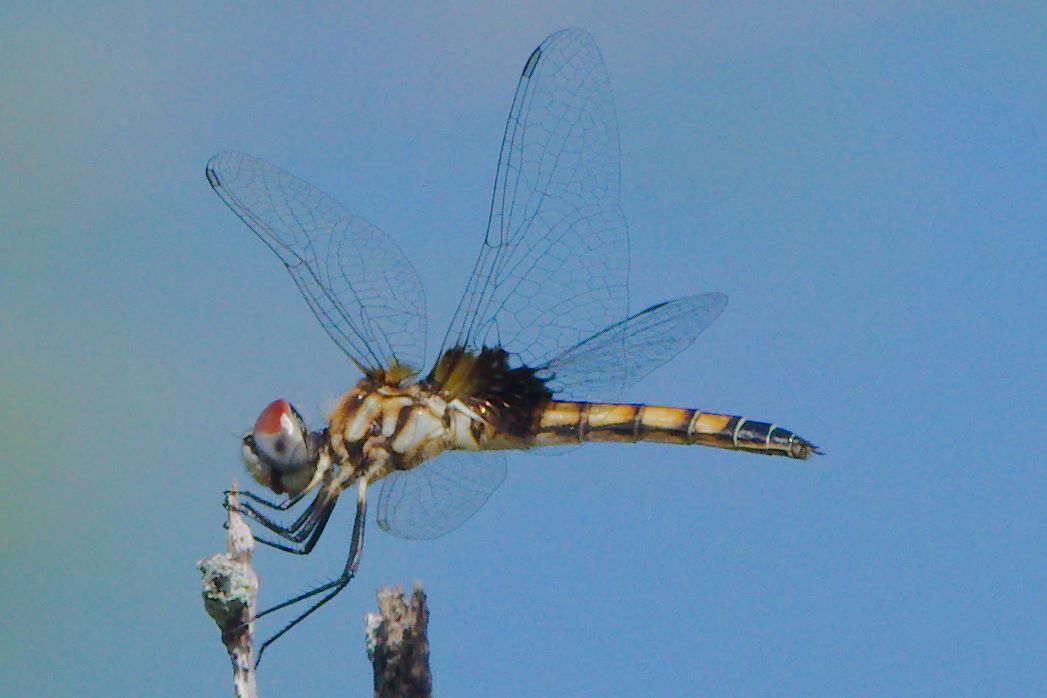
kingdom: Animalia
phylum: Arthropoda
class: Insecta
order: Odonata
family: Libellulidae
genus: Macrodiplax
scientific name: Macrodiplax balteata
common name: Marl pennant
